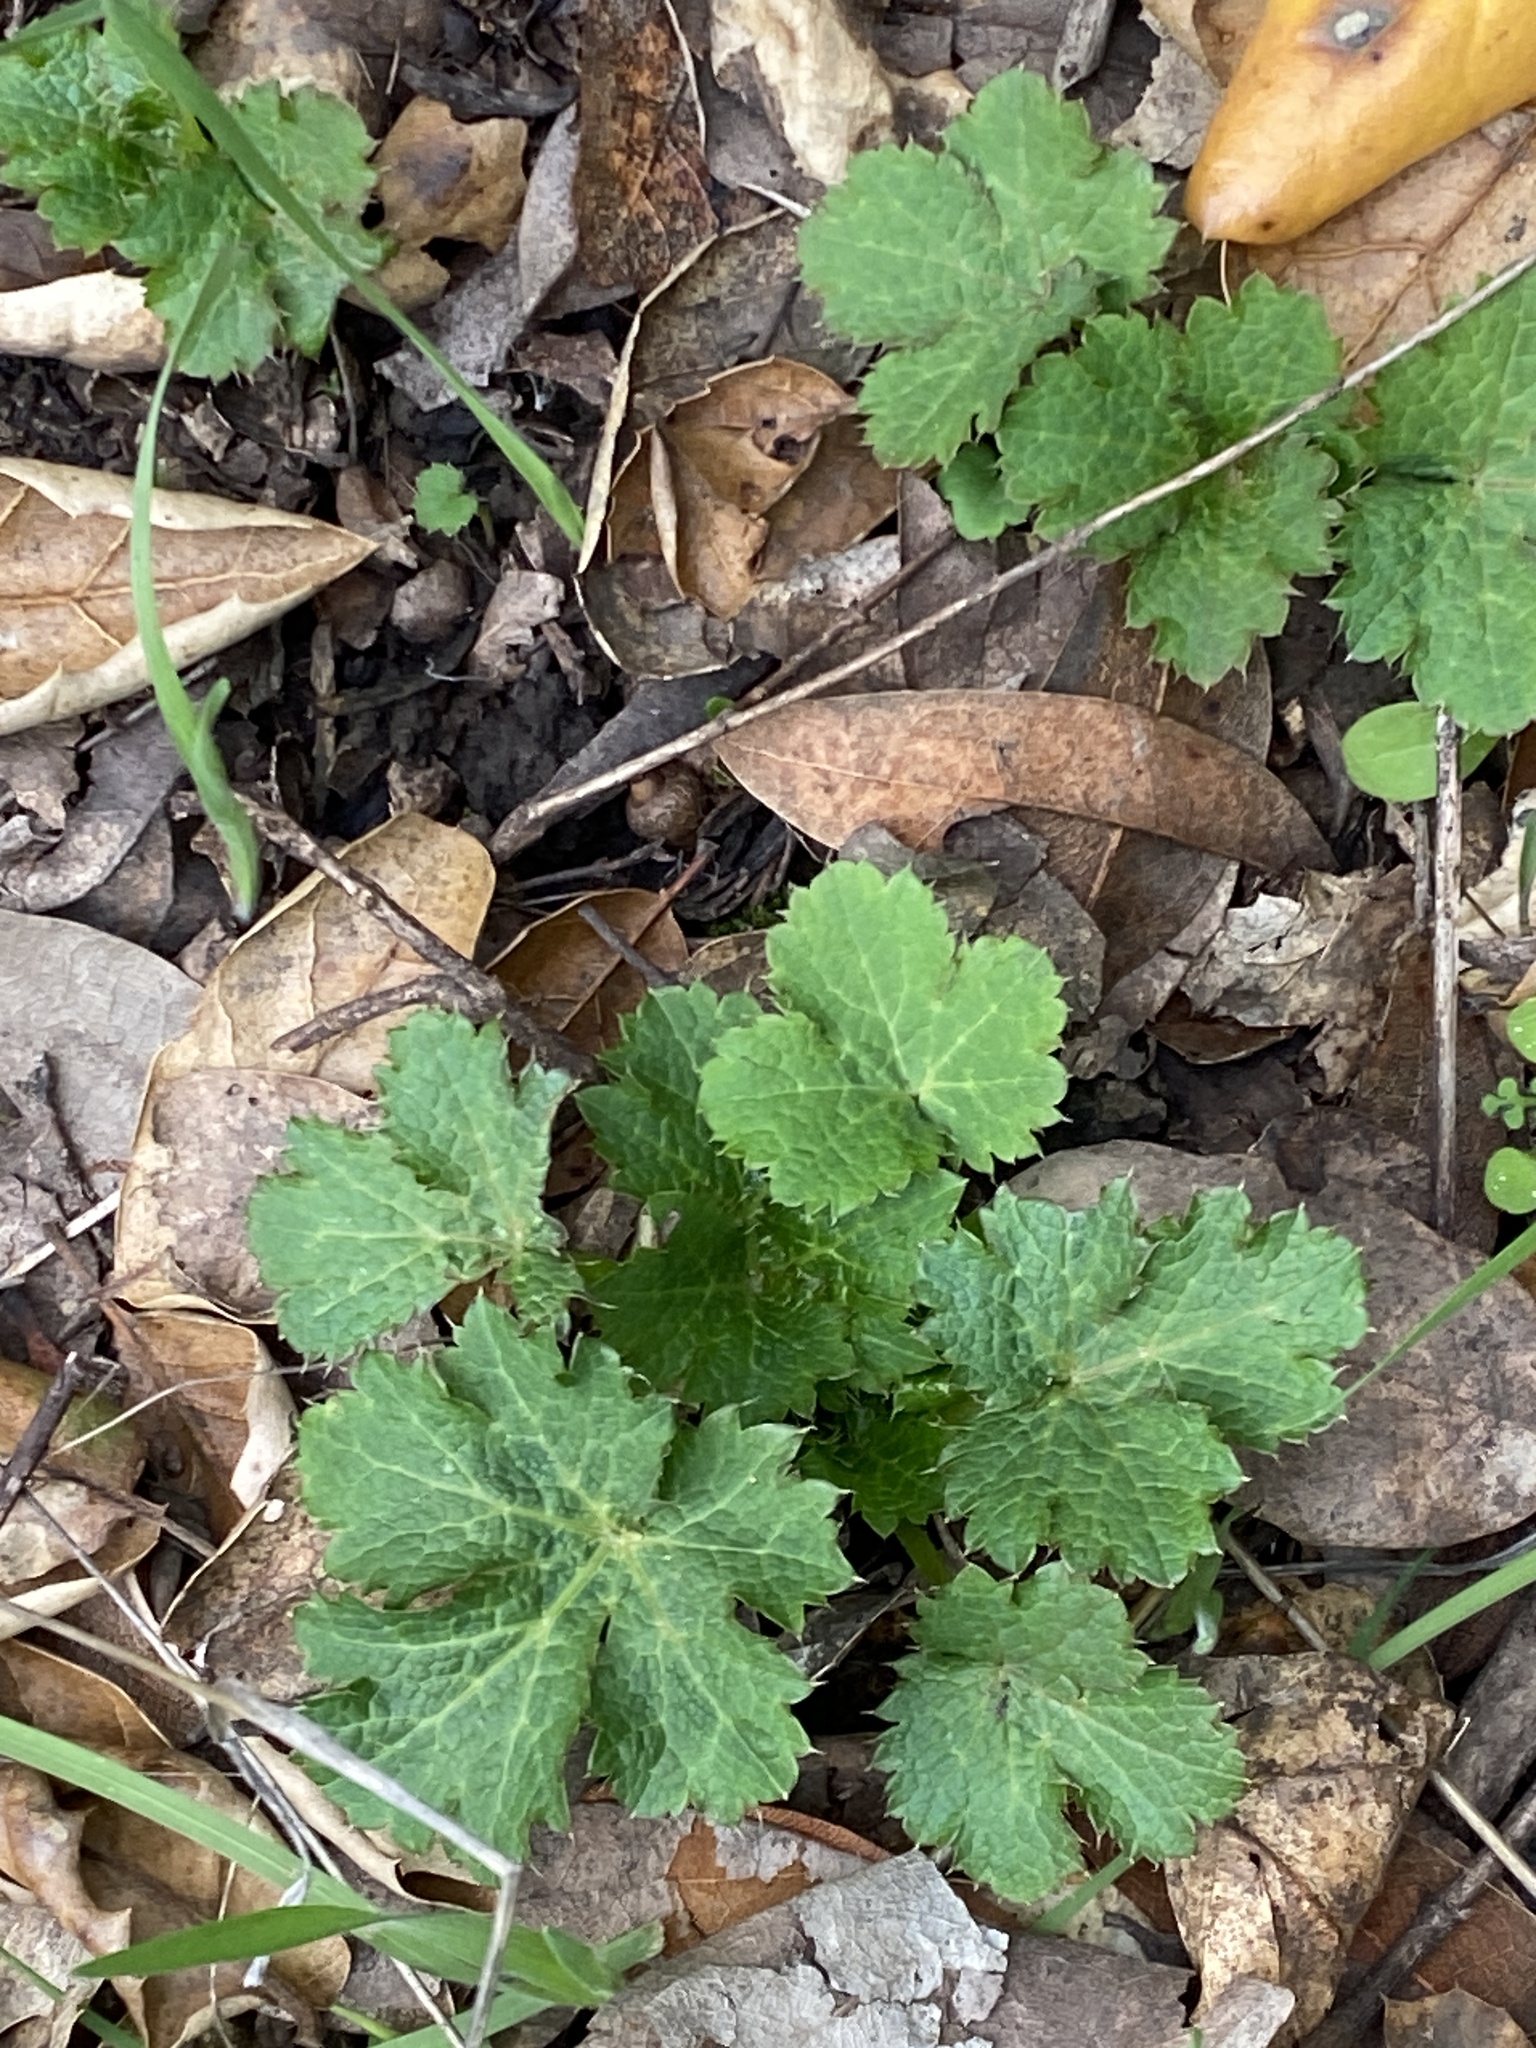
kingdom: Plantae
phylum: Tracheophyta
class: Magnoliopsida
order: Apiales
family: Apiaceae
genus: Sanicula
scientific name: Sanicula crassicaulis
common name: Western snakeroot
